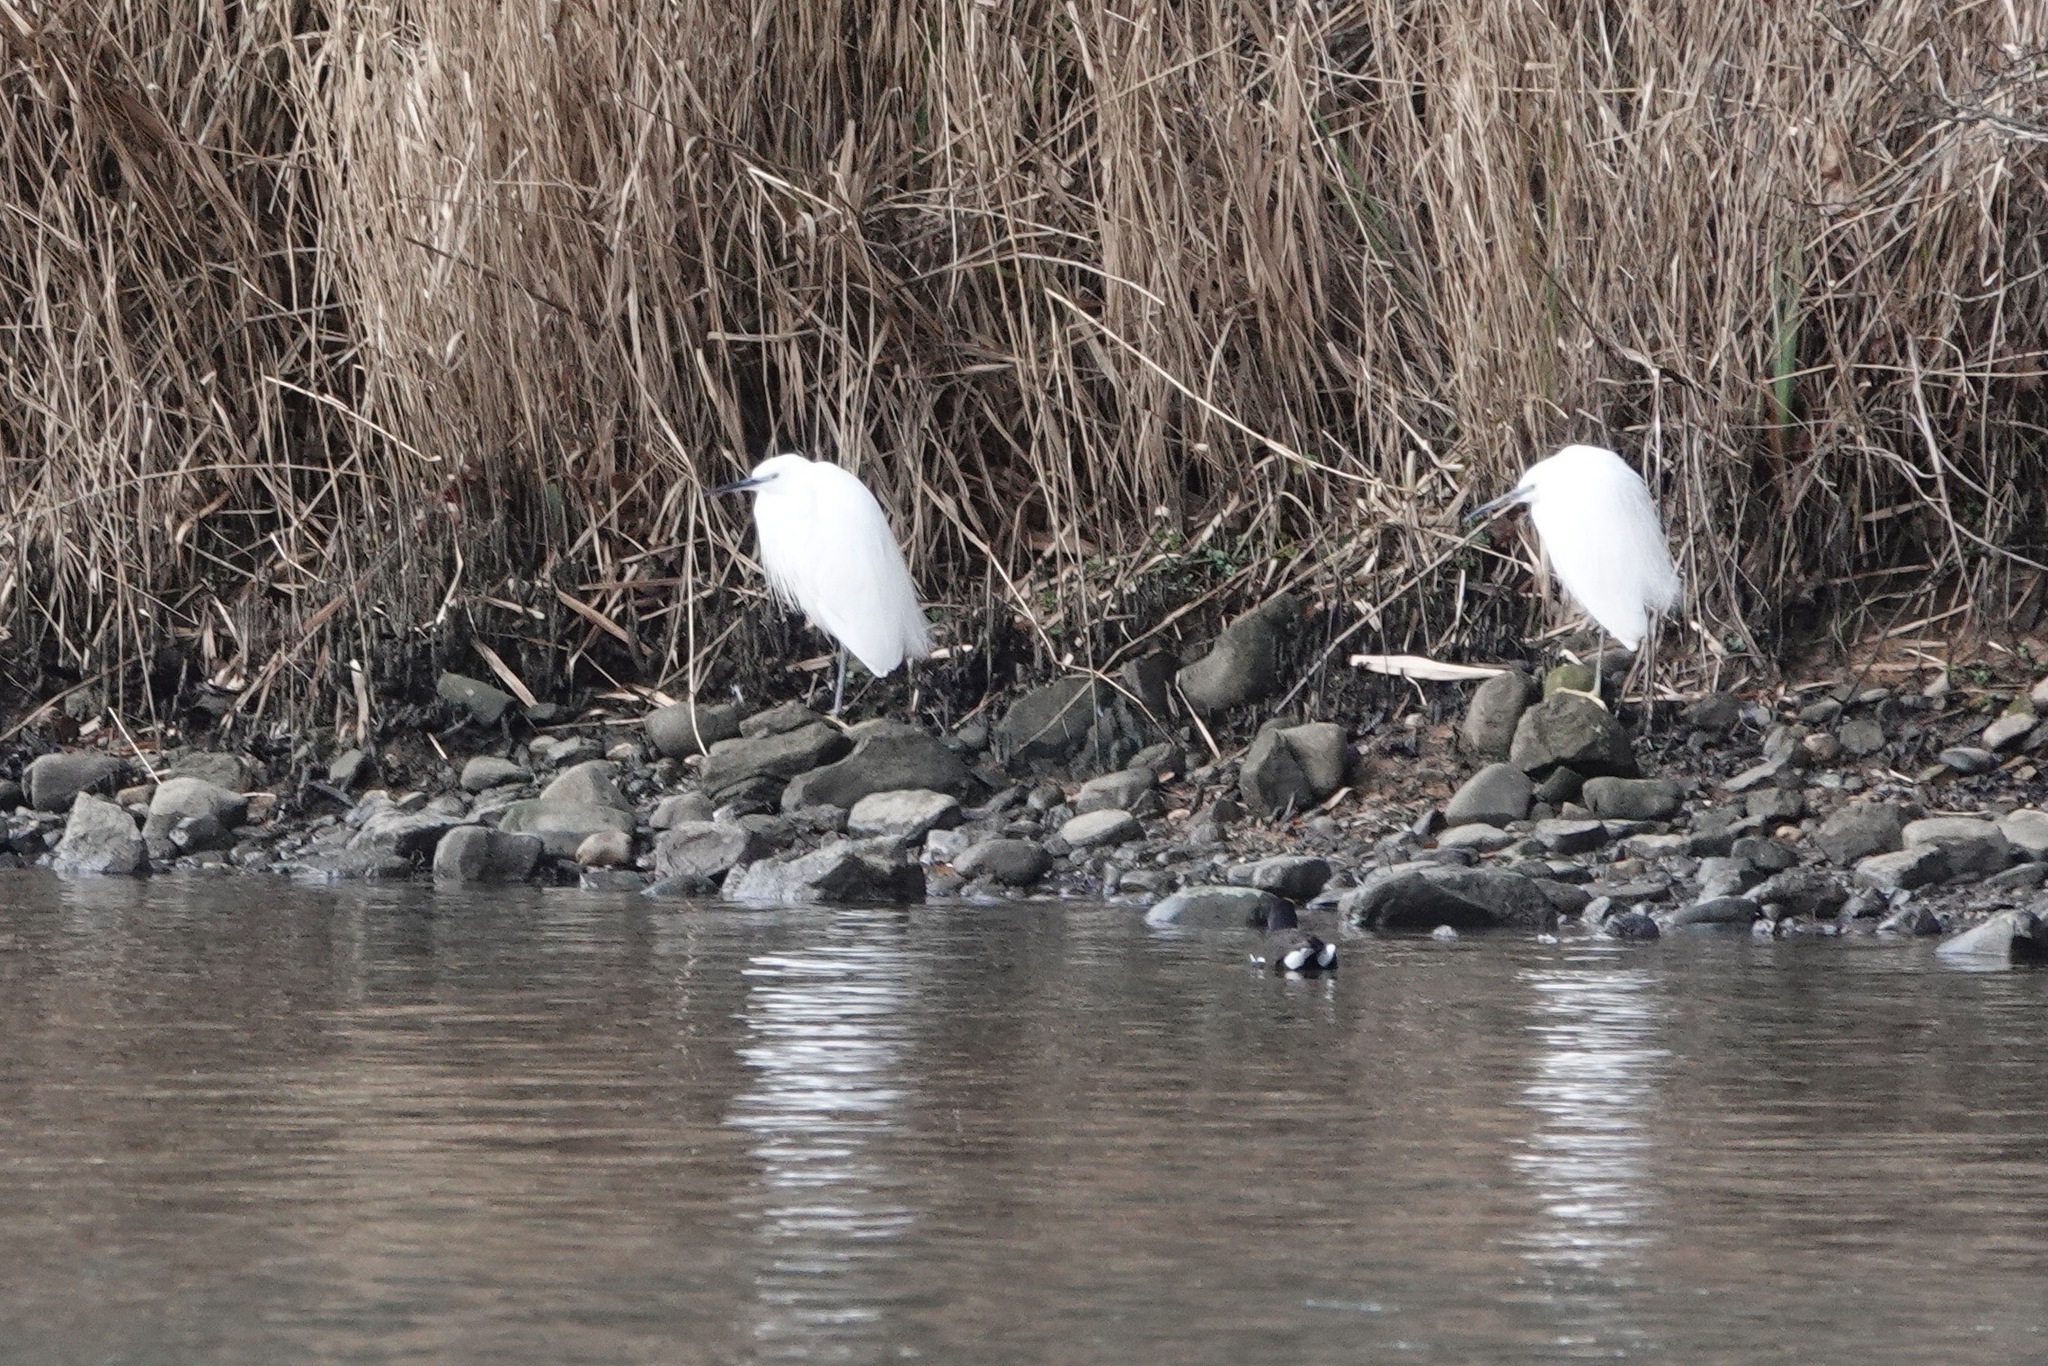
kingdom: Animalia
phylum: Chordata
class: Aves
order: Pelecaniformes
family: Ardeidae
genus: Egretta
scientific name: Egretta garzetta
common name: Little egret
